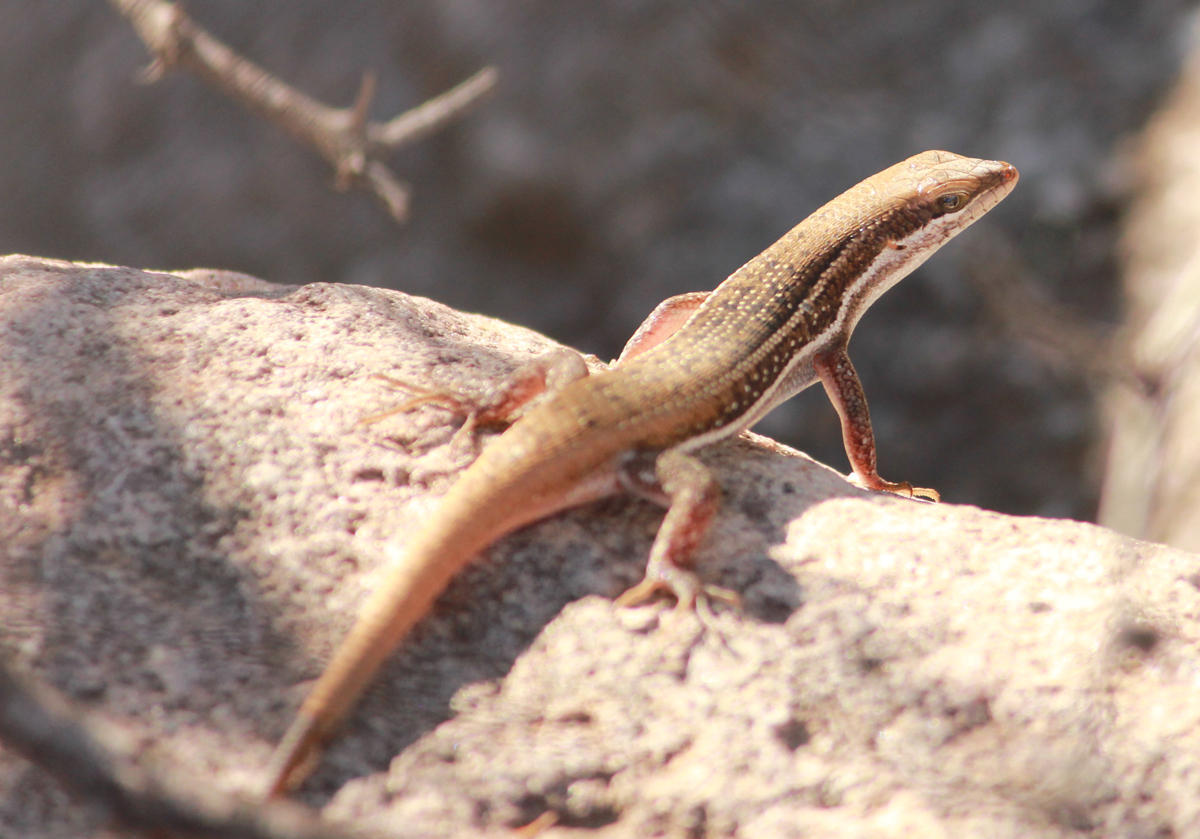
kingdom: Animalia
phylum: Chordata
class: Squamata
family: Scincidae
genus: Trachylepis
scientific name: Trachylepis varia
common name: Eastern variable skink
